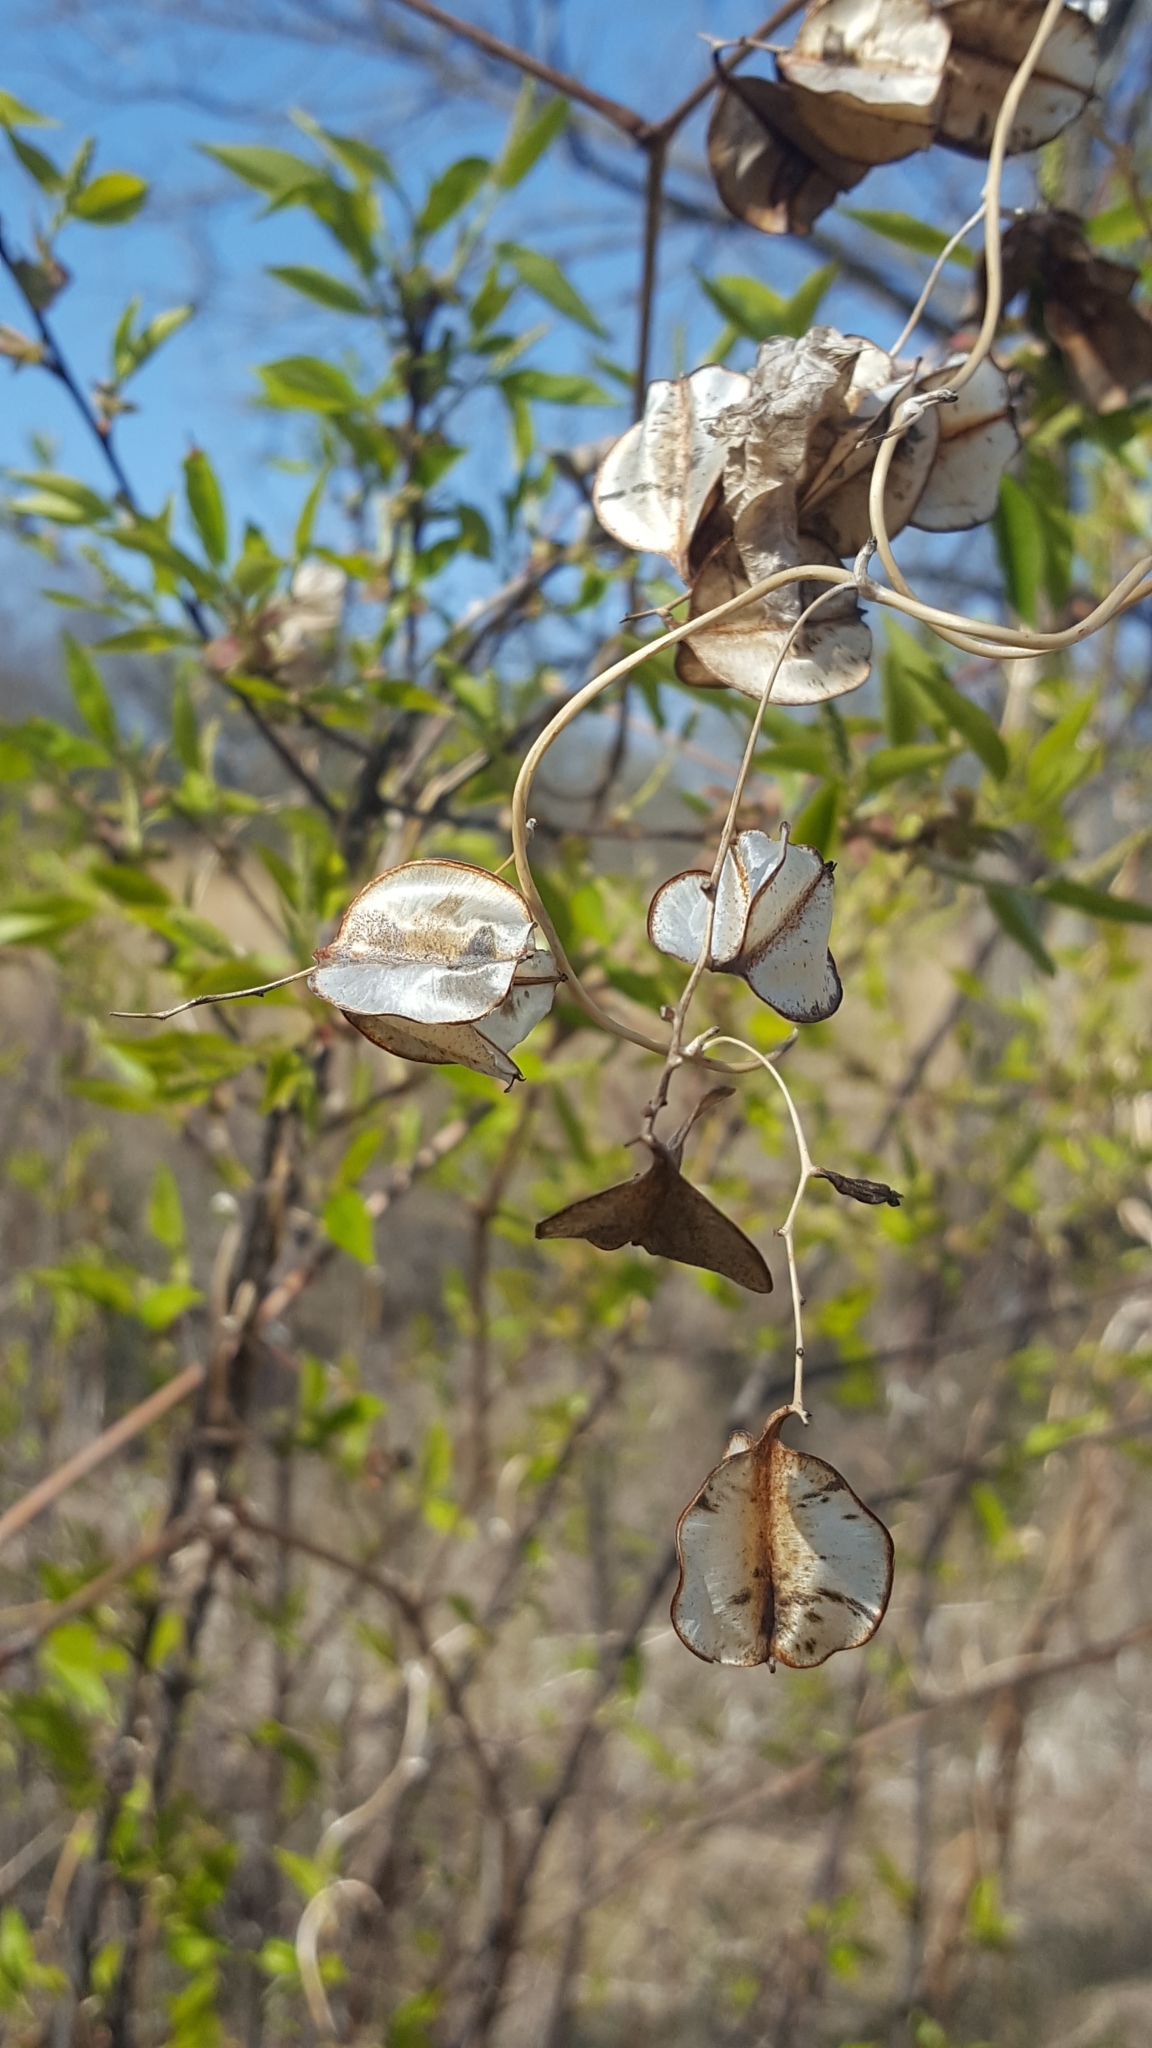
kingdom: Plantae
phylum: Tracheophyta
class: Liliopsida
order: Dioscoreales
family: Dioscoreaceae
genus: Dioscorea
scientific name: Dioscorea villosa
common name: Wild yam
